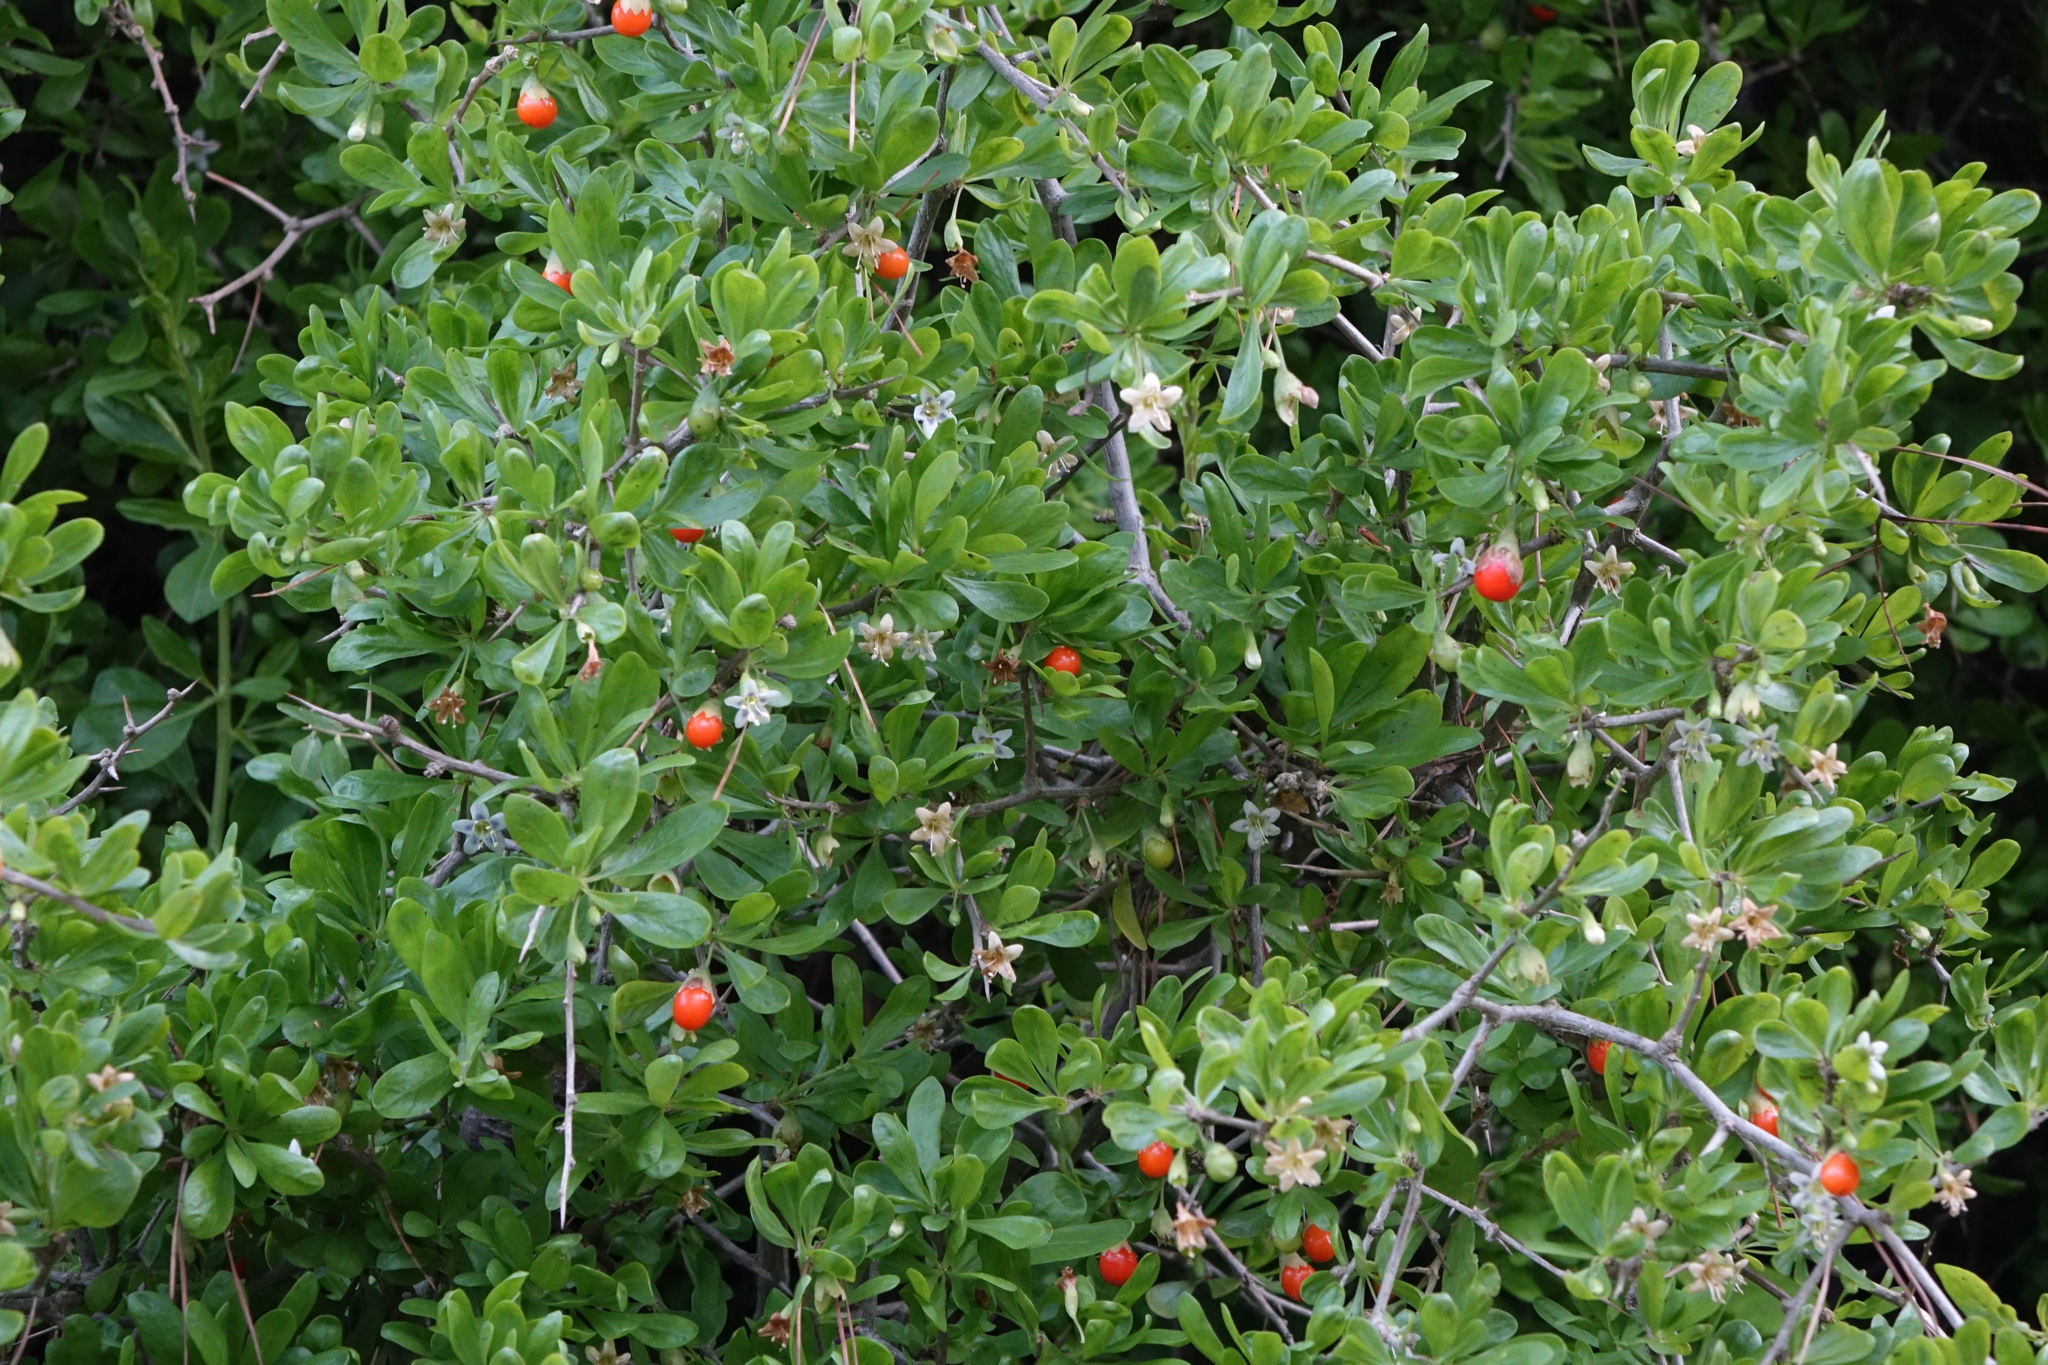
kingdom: Plantae
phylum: Tracheophyta
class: Magnoliopsida
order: Solanales
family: Solanaceae
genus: Lycium
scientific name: Lycium ferocissimum
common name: African boxthorn
